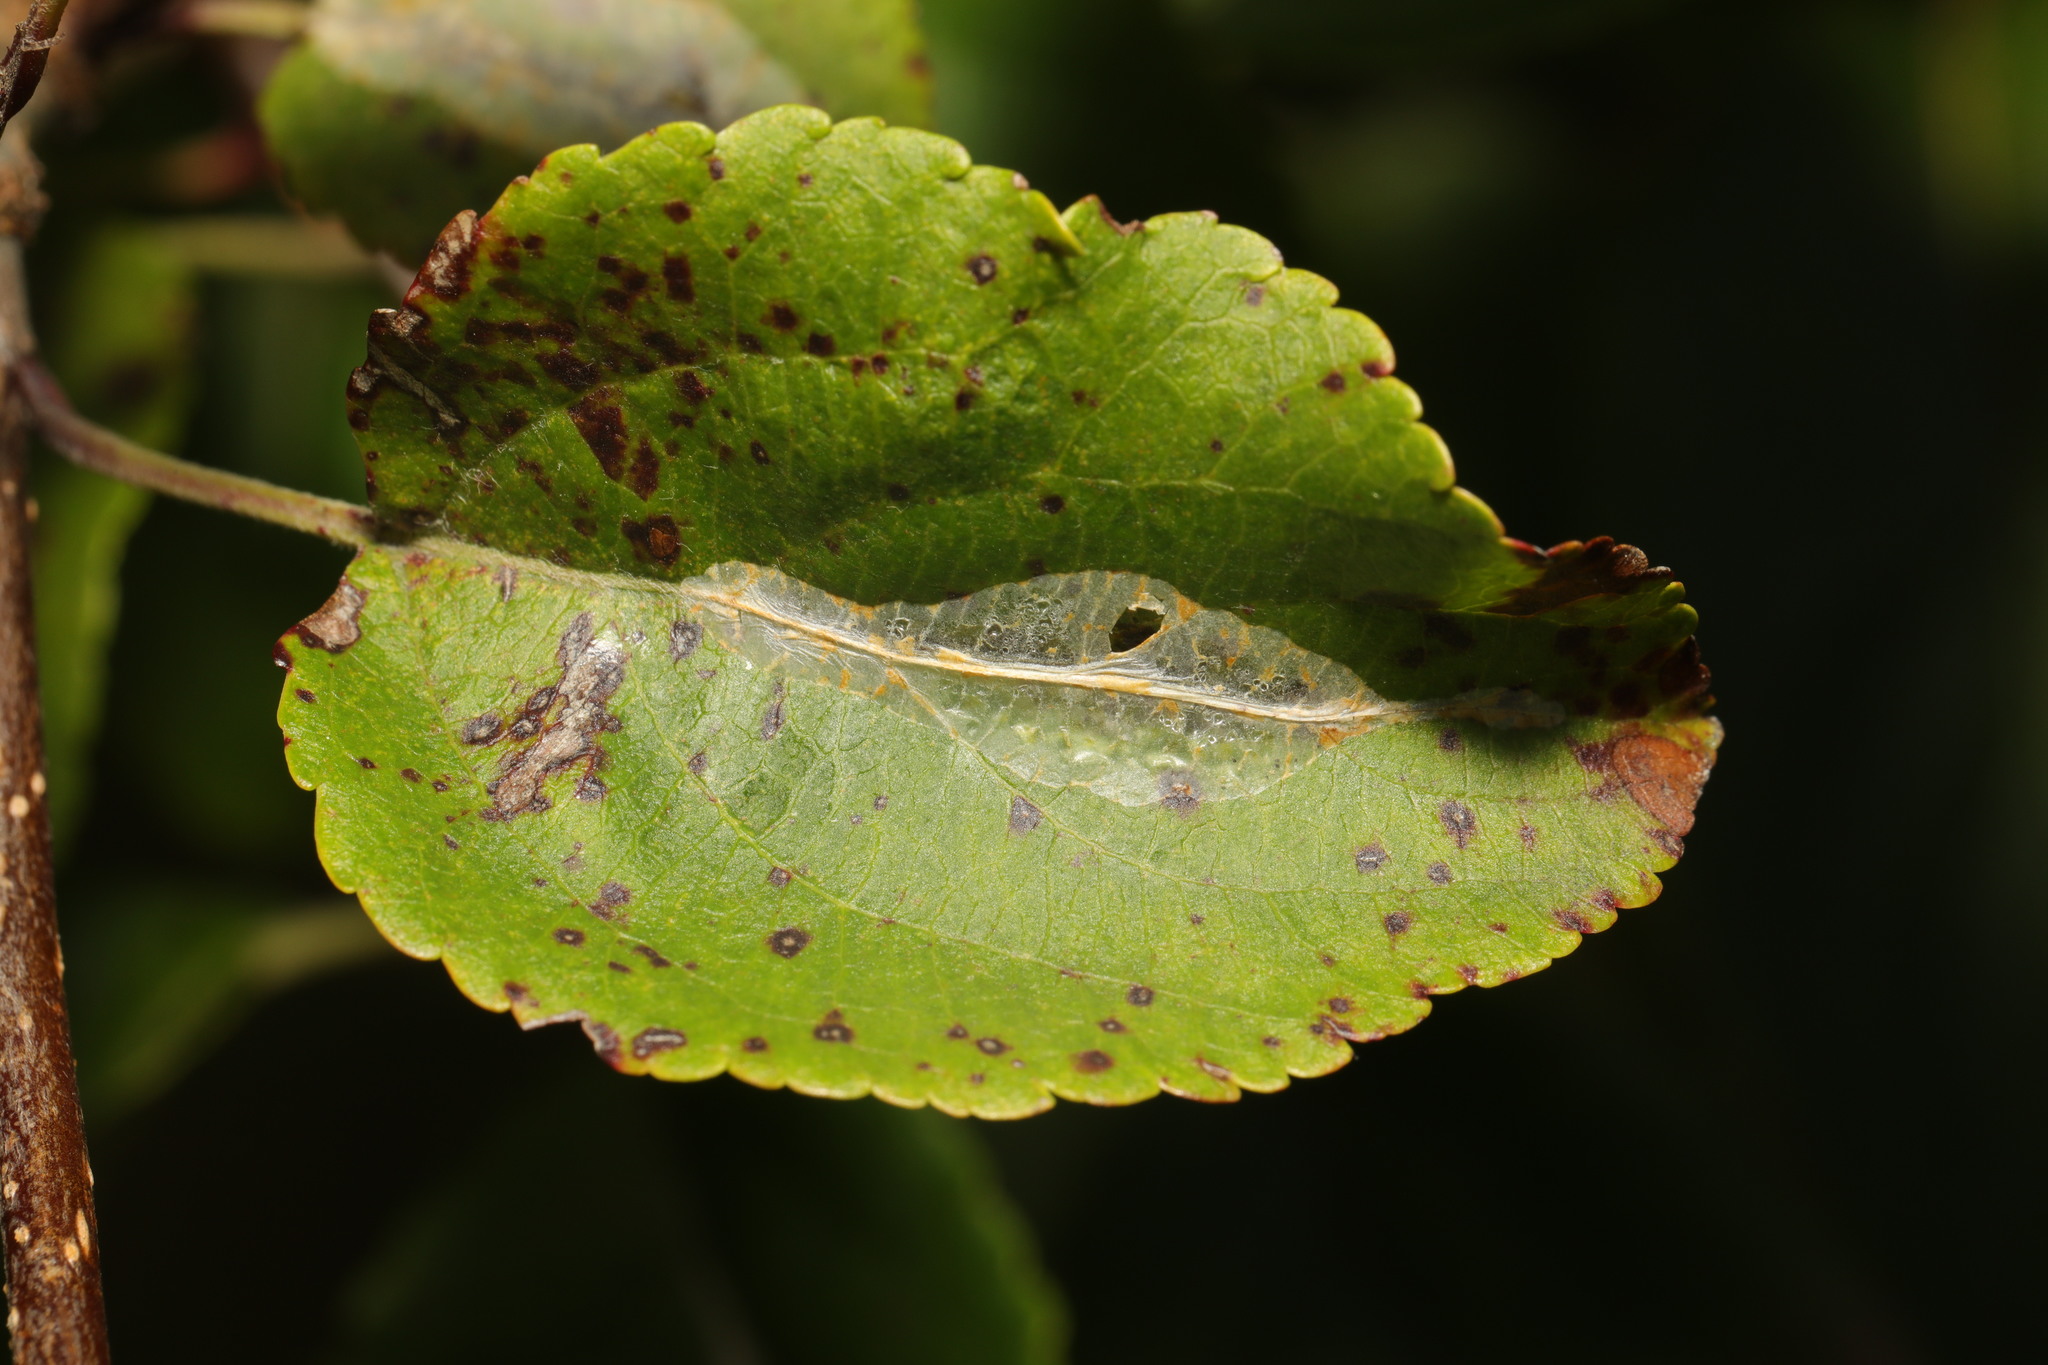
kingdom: Animalia
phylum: Arthropoda
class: Insecta
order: Lepidoptera
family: Gracillariidae
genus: Phyllonorycter
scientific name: Phyllonorycter leucographella
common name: Firethorn leaf-miner
